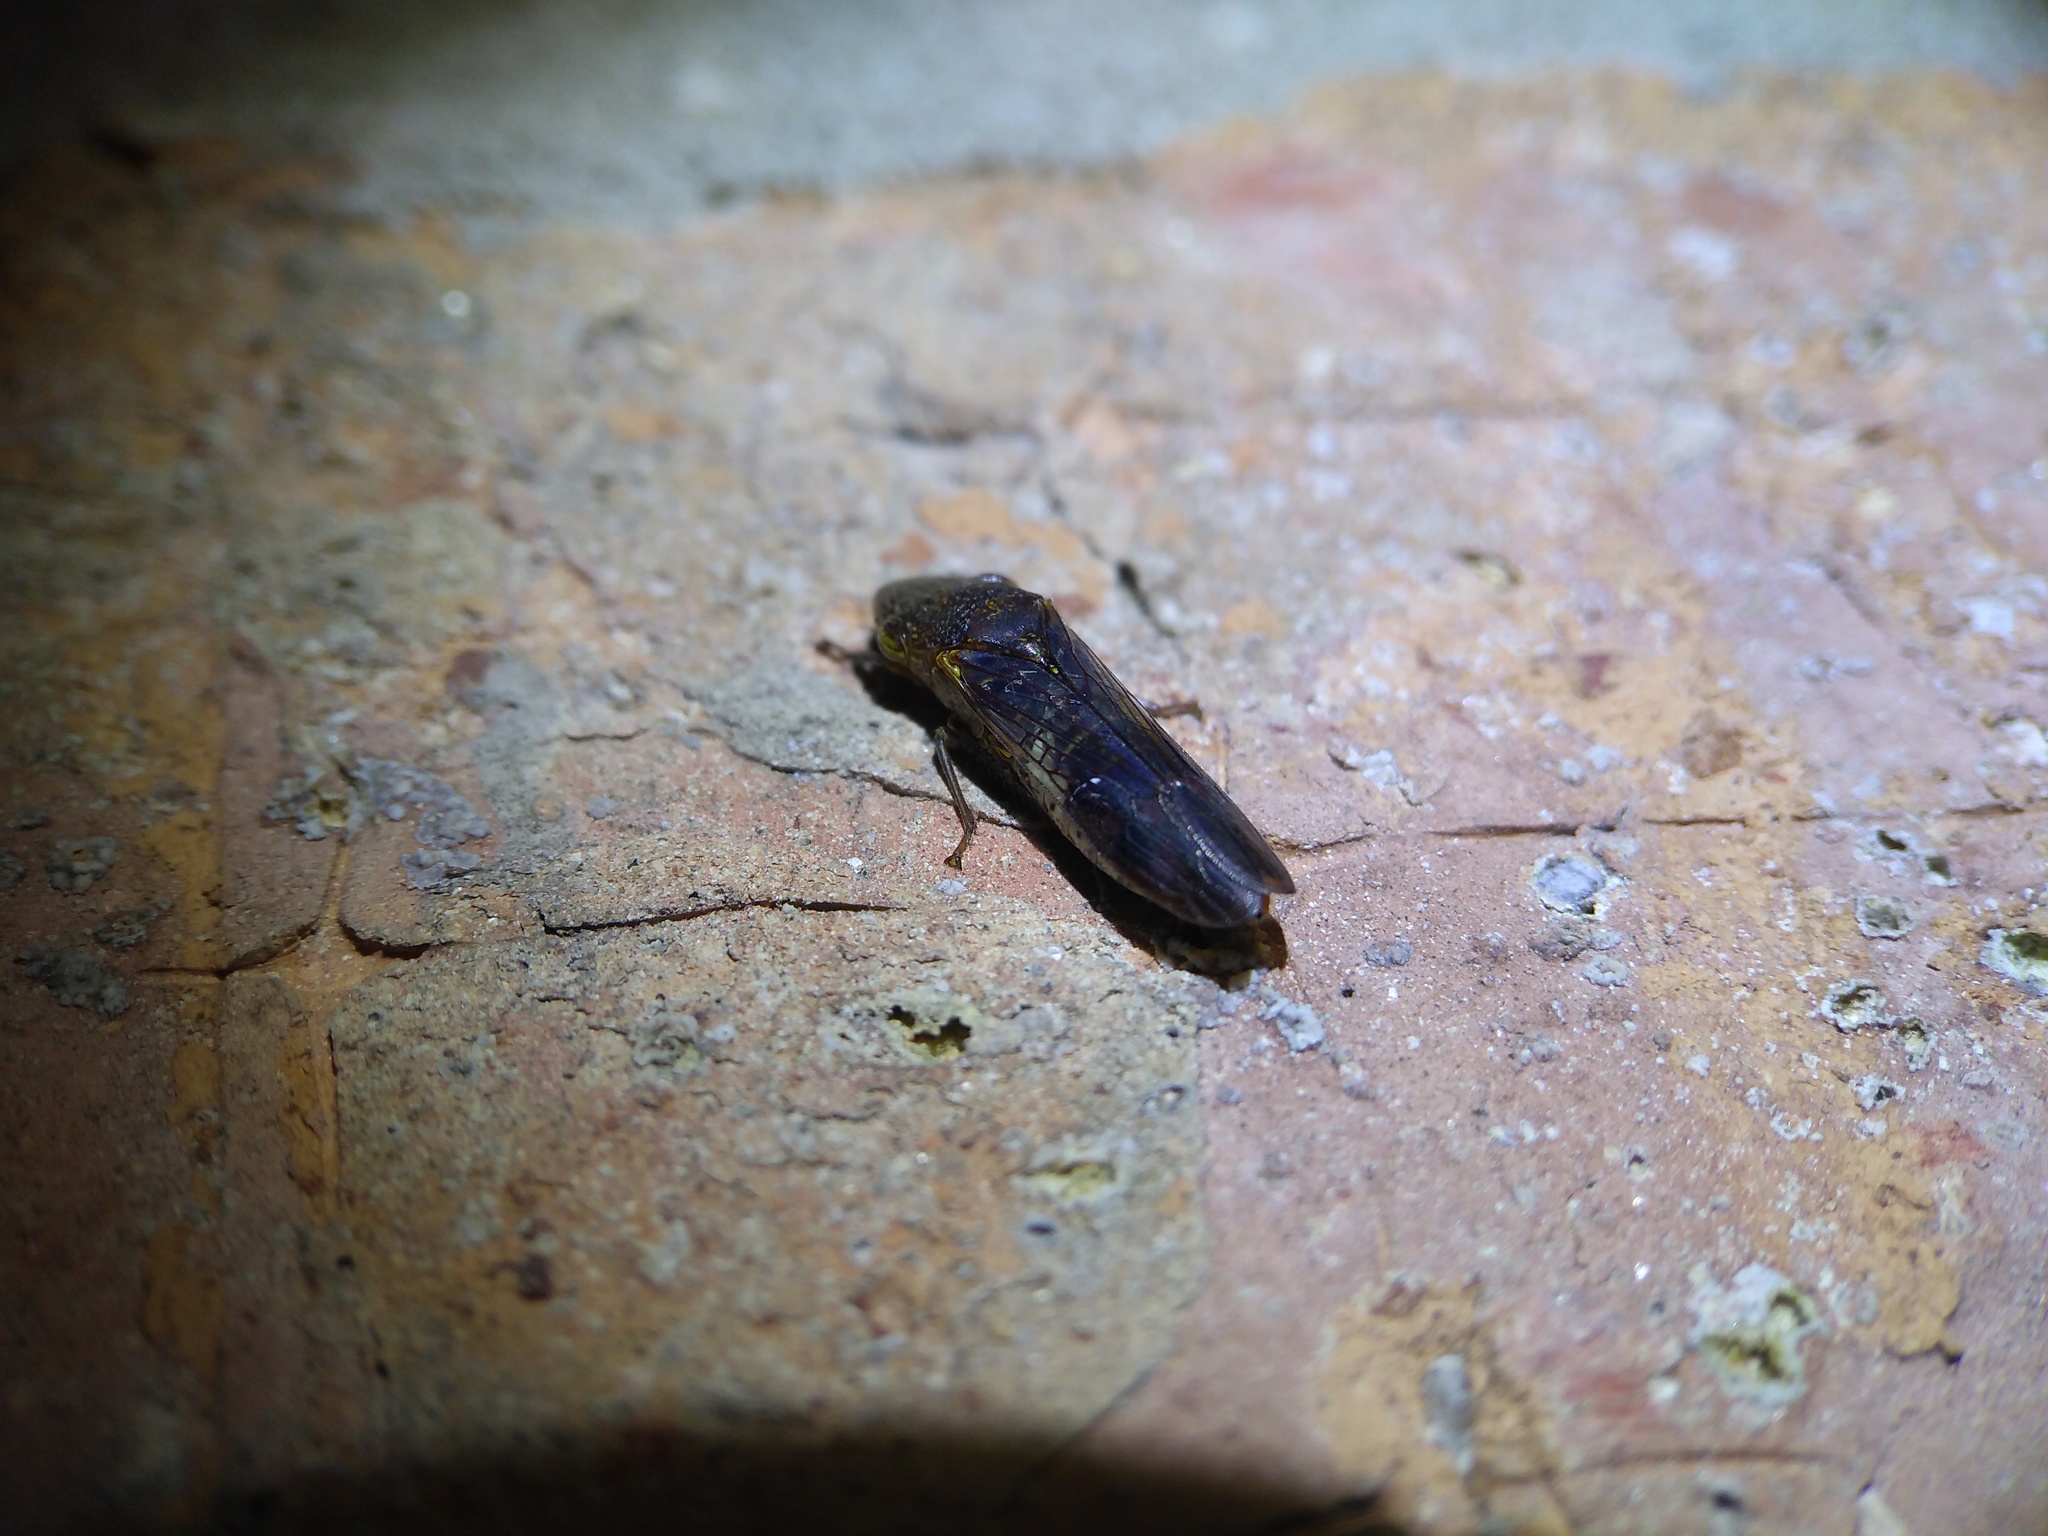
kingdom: Animalia
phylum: Arthropoda
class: Insecta
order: Hemiptera
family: Cicadellidae
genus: Homalodisca
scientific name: Homalodisca vitripennis
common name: Glassy-winged sharpshooter
